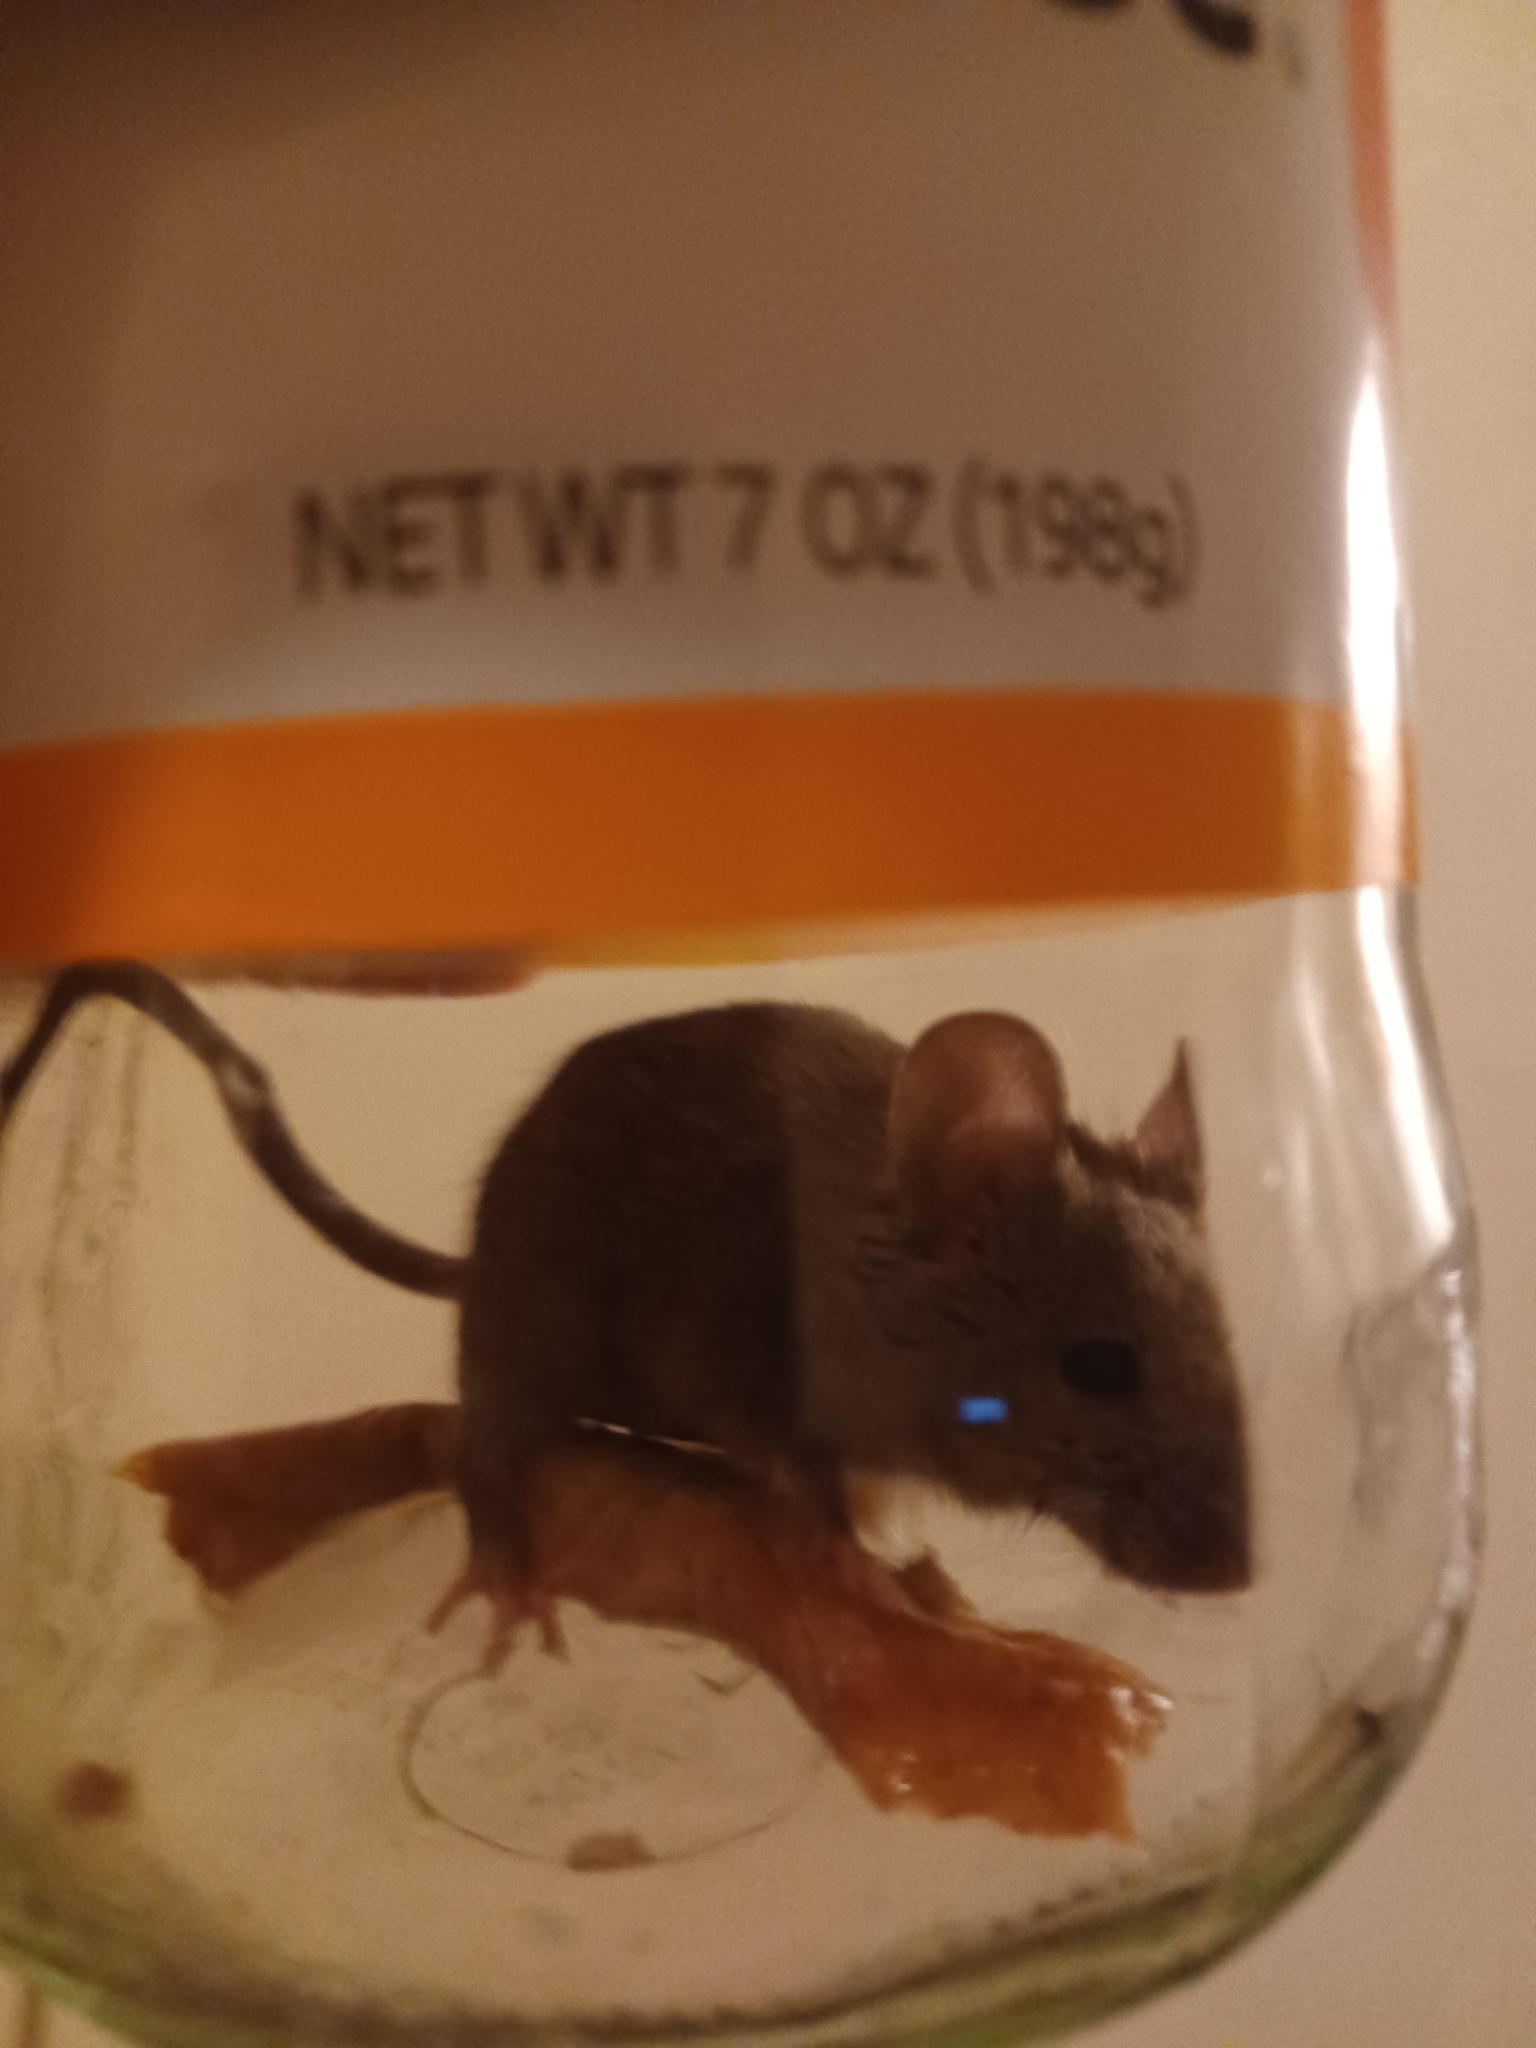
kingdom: Animalia
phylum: Chordata
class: Mammalia
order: Rodentia
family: Muridae
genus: Mus
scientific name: Mus musculus
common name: House mouse
